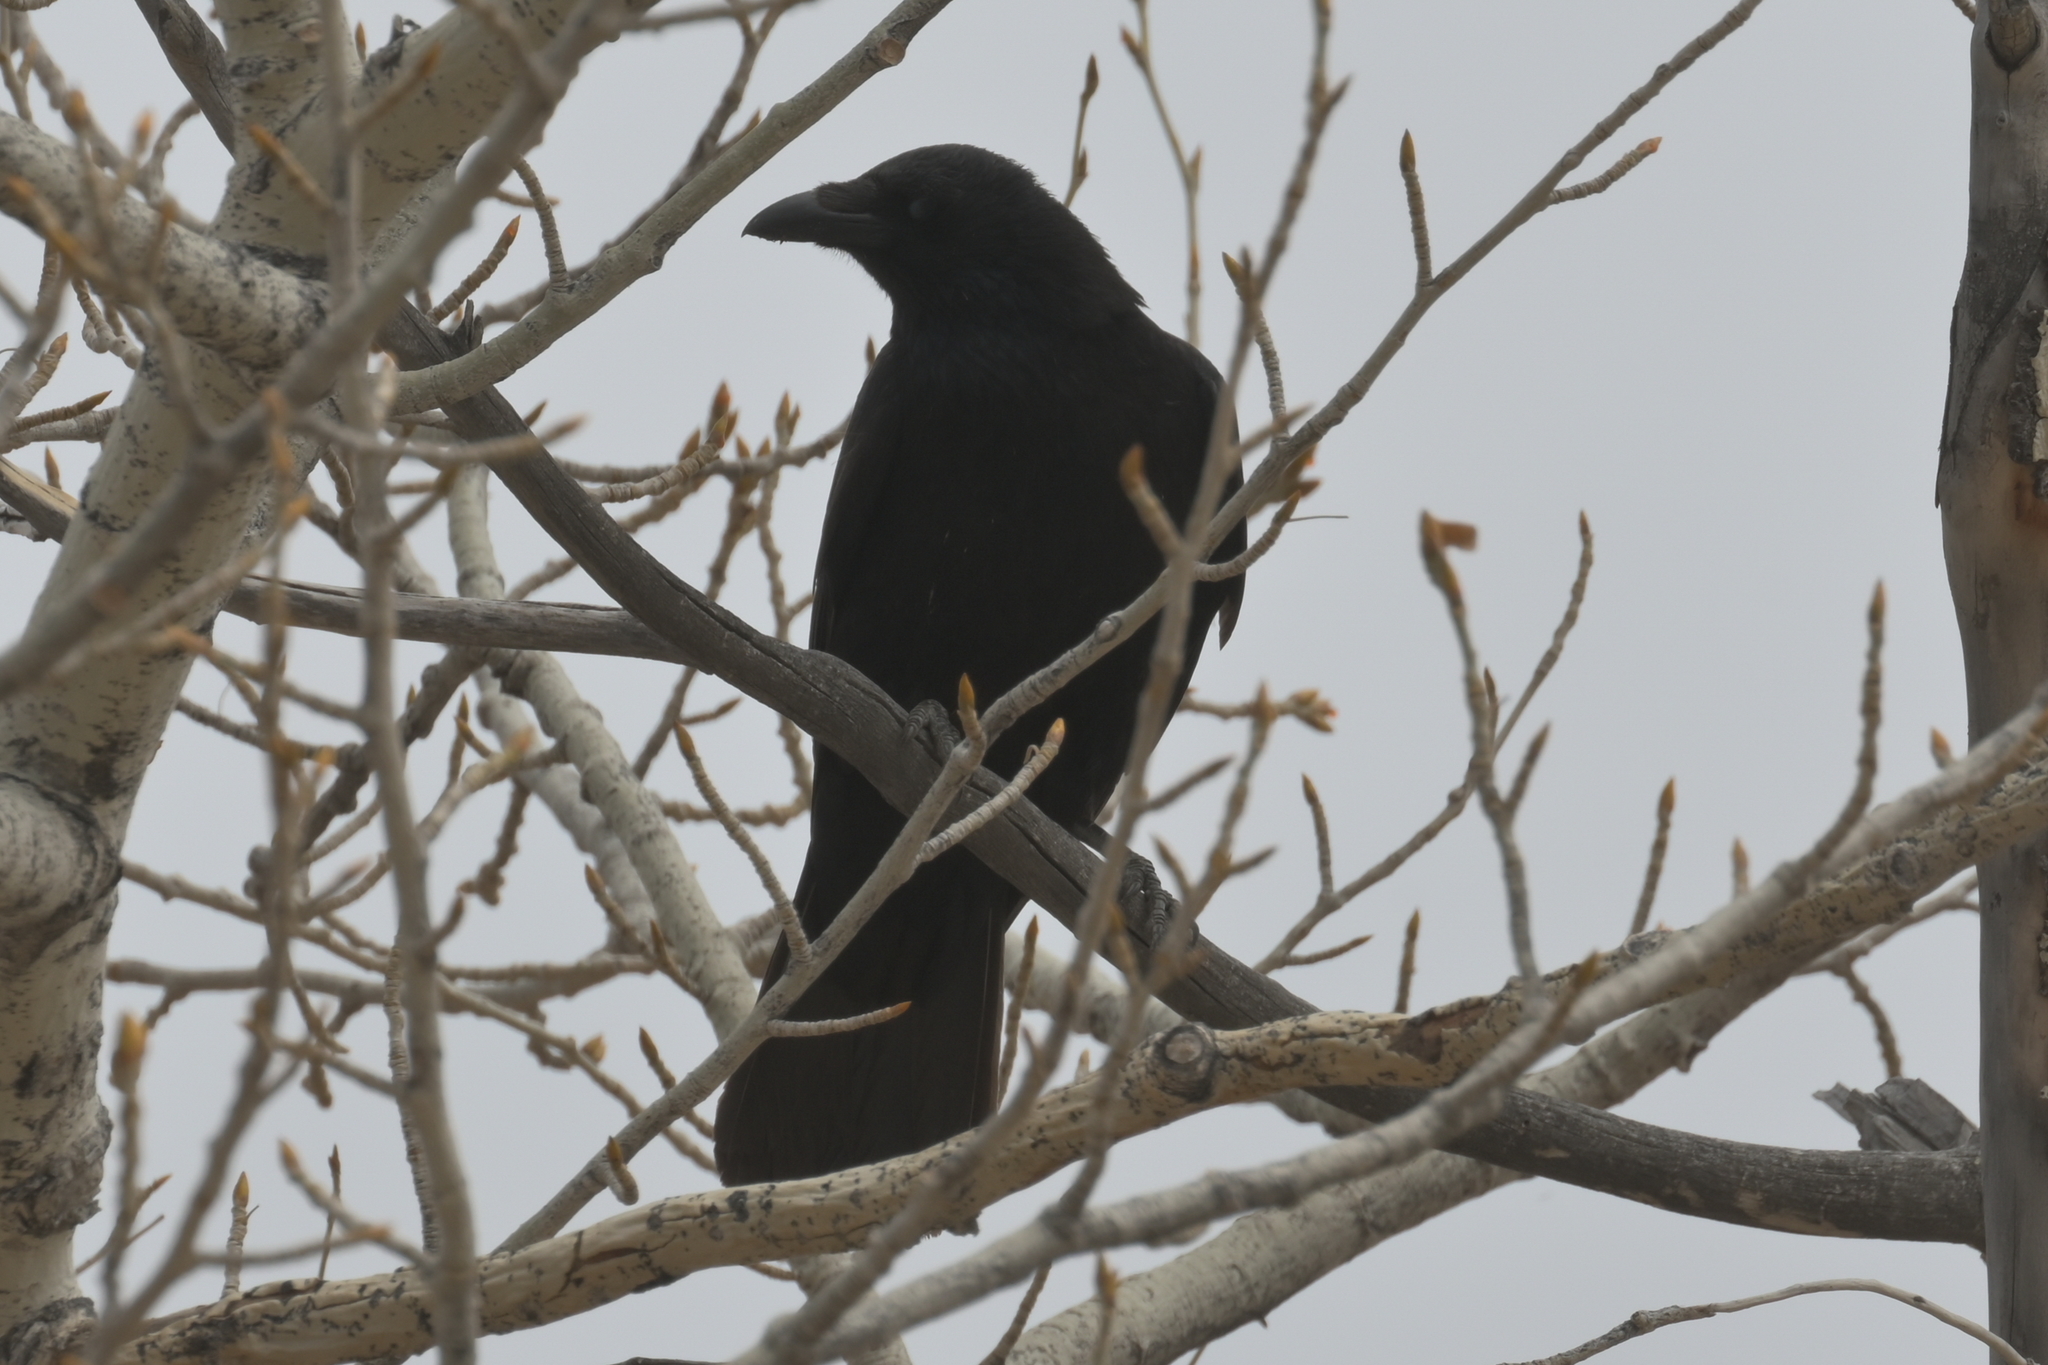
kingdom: Animalia
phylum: Chordata
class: Aves
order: Passeriformes
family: Corvidae
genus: Corvus
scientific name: Corvus corone
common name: Carrion crow
